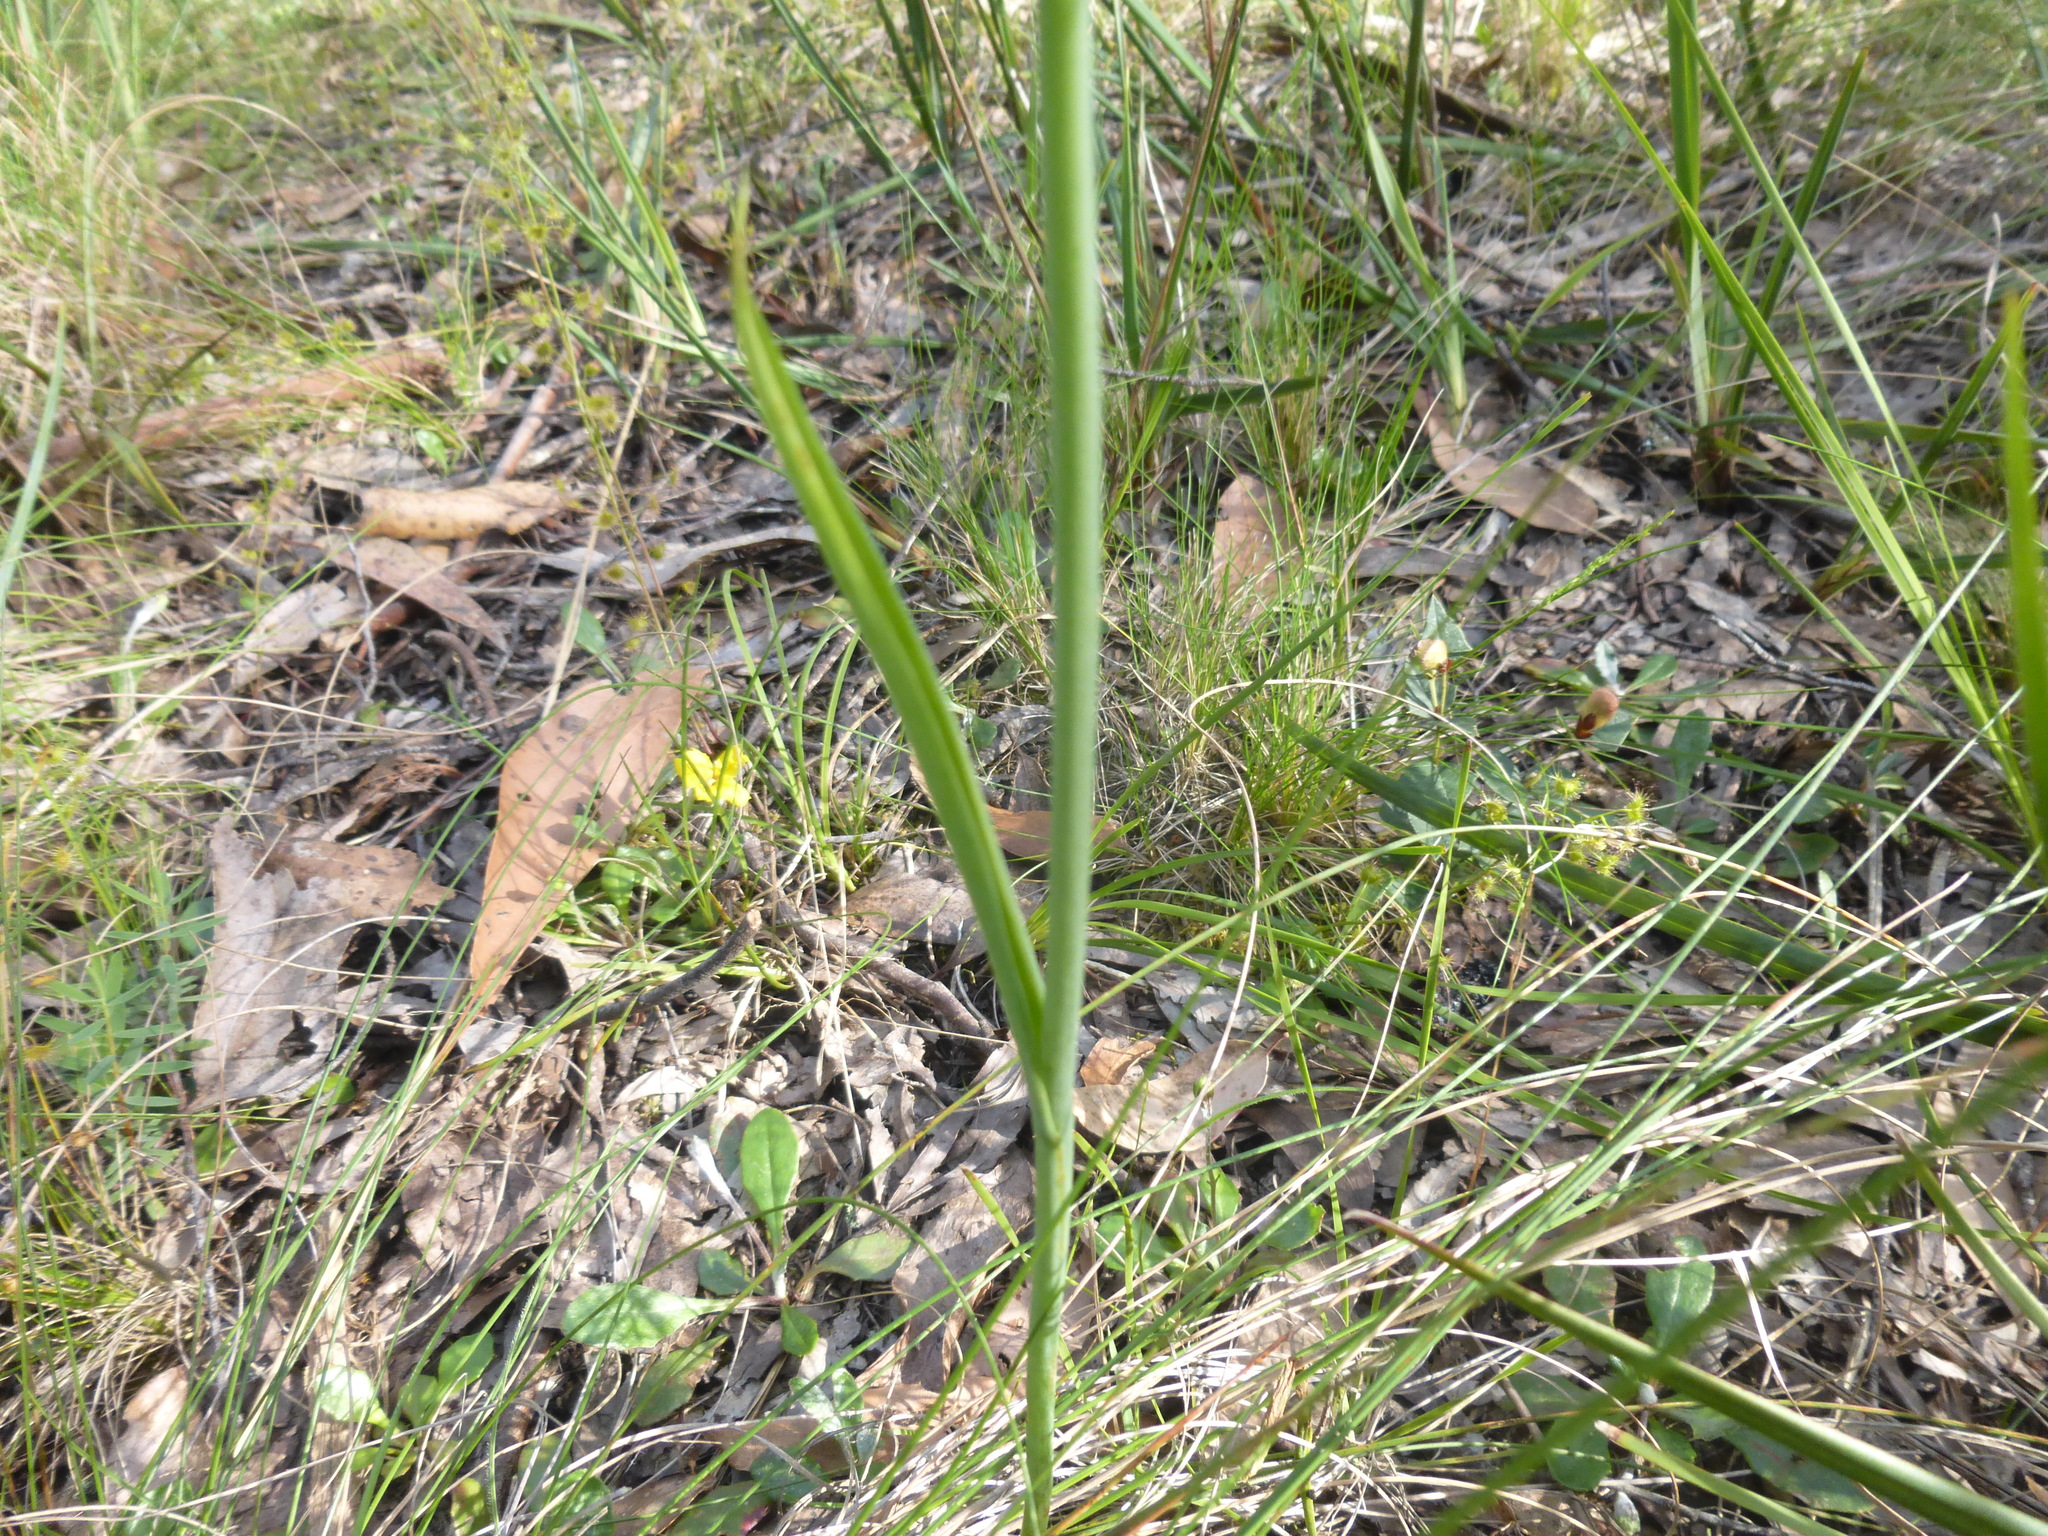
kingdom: Plantae
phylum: Tracheophyta
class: Liliopsida
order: Asparagales
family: Orchidaceae
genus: Calochilus
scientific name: Calochilus robertsonii
